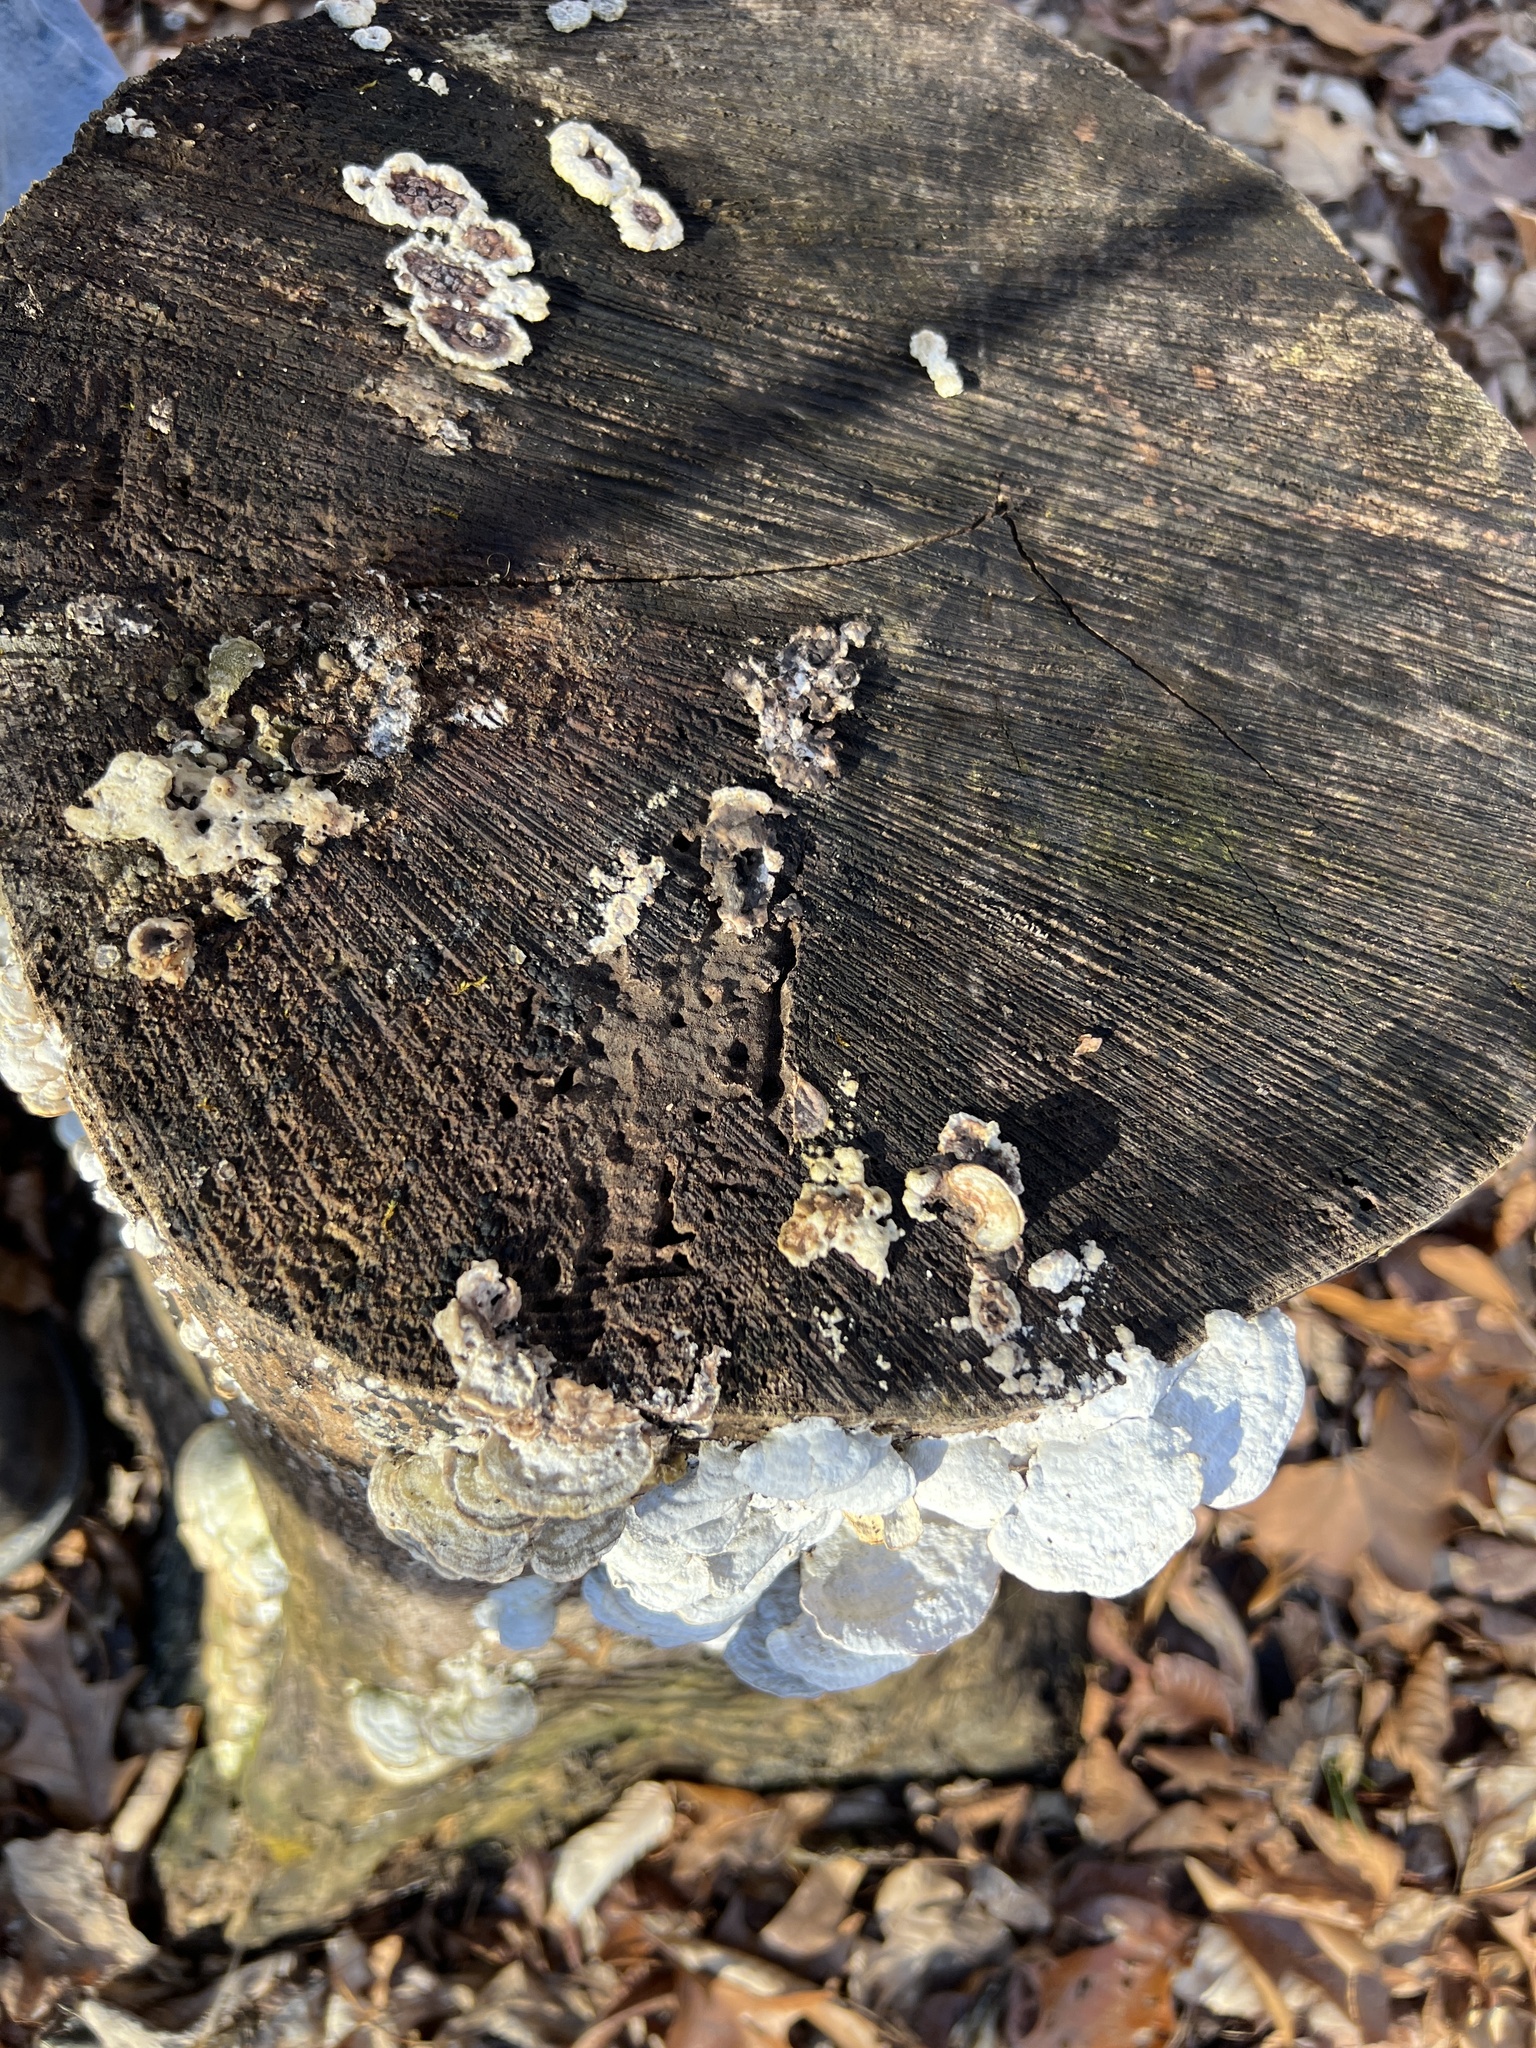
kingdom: Fungi
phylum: Basidiomycota
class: Agaricomycetes
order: Hymenochaetales
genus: Trichaptum
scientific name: Trichaptum subchartaceum
